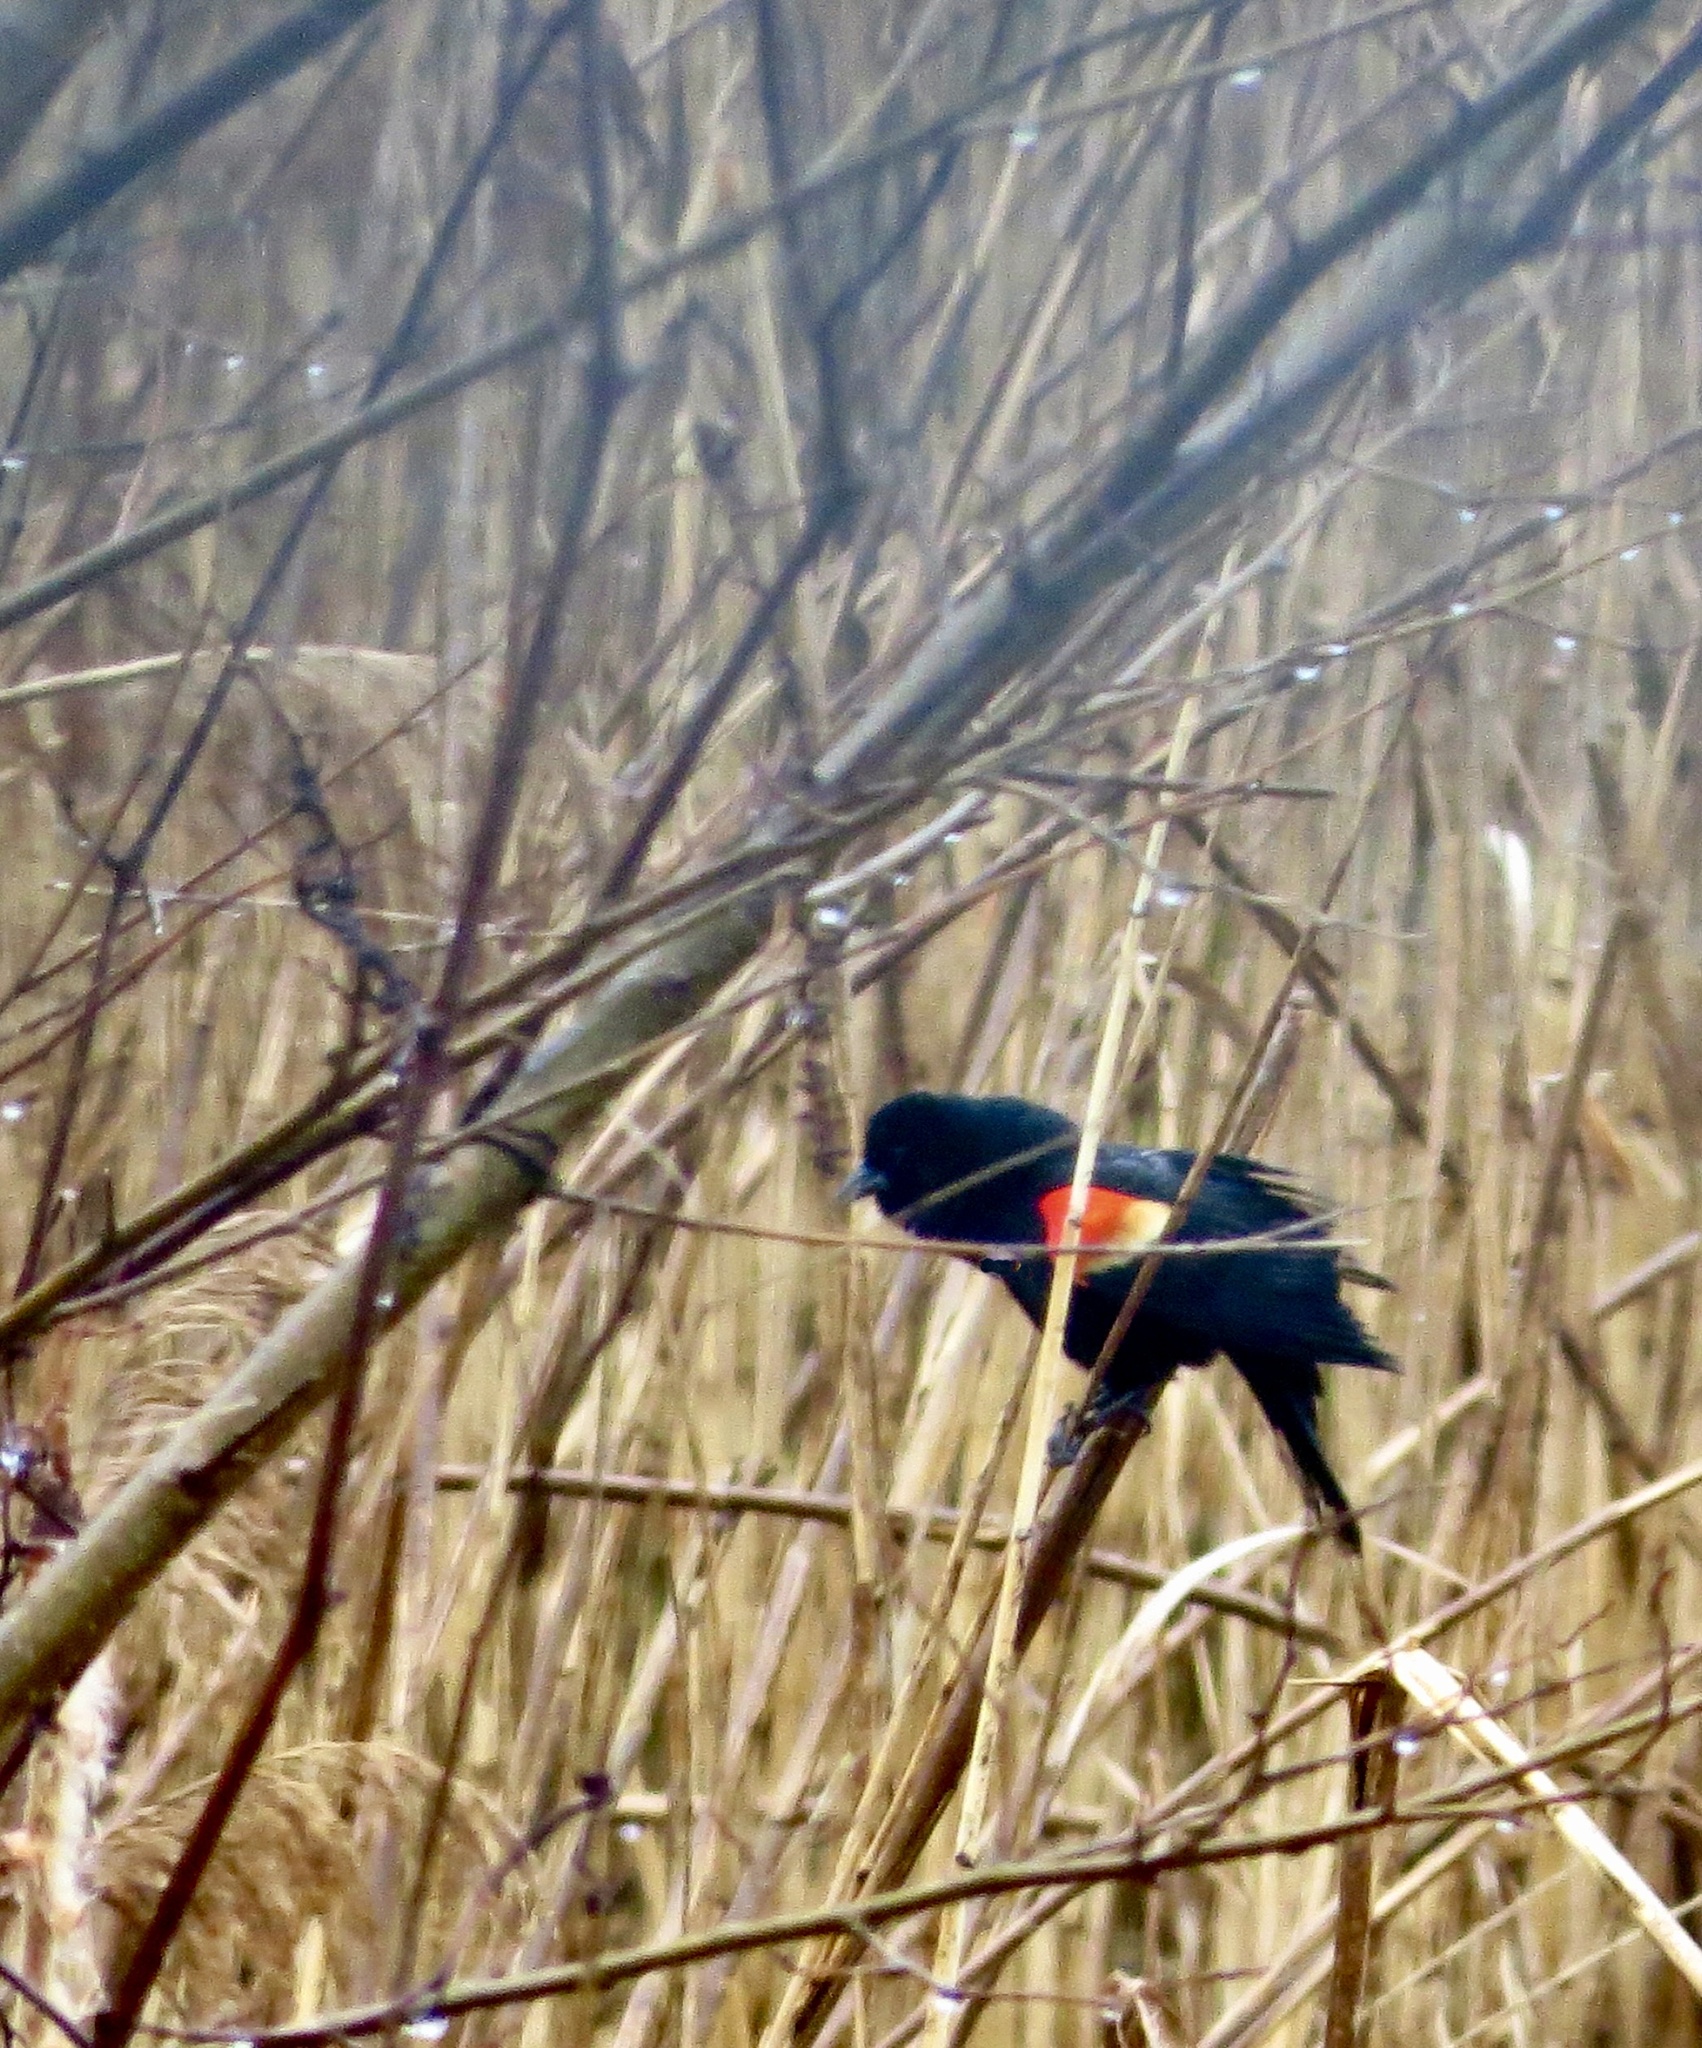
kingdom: Animalia
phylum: Chordata
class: Aves
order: Passeriformes
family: Icteridae
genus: Agelaius
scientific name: Agelaius phoeniceus
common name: Red-winged blackbird
